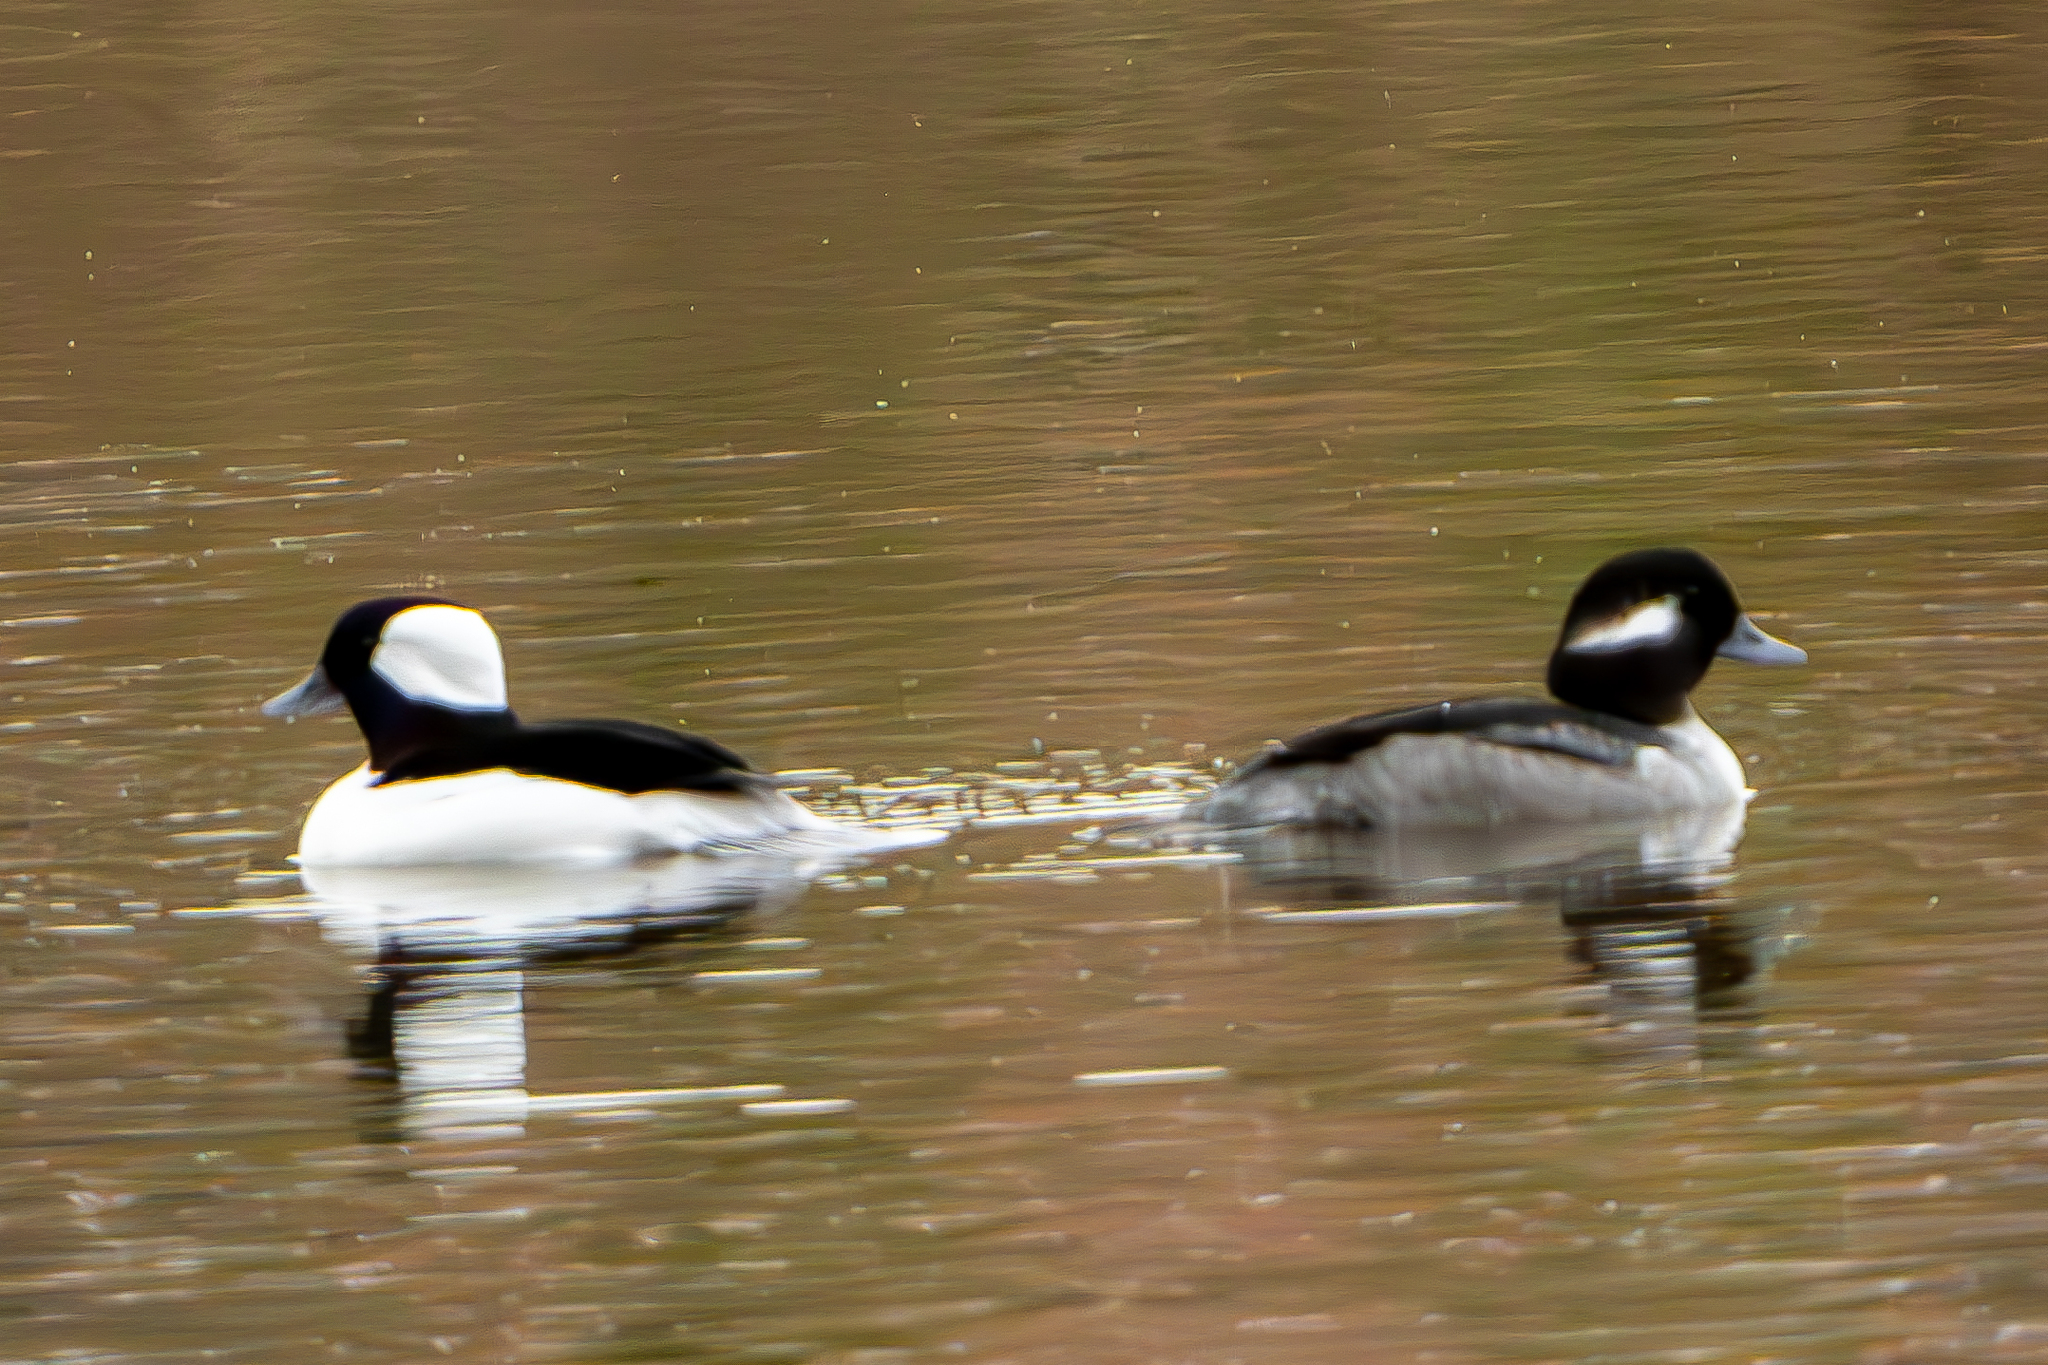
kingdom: Animalia
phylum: Chordata
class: Aves
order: Anseriformes
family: Anatidae
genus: Bucephala
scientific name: Bucephala albeola
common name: Bufflehead
